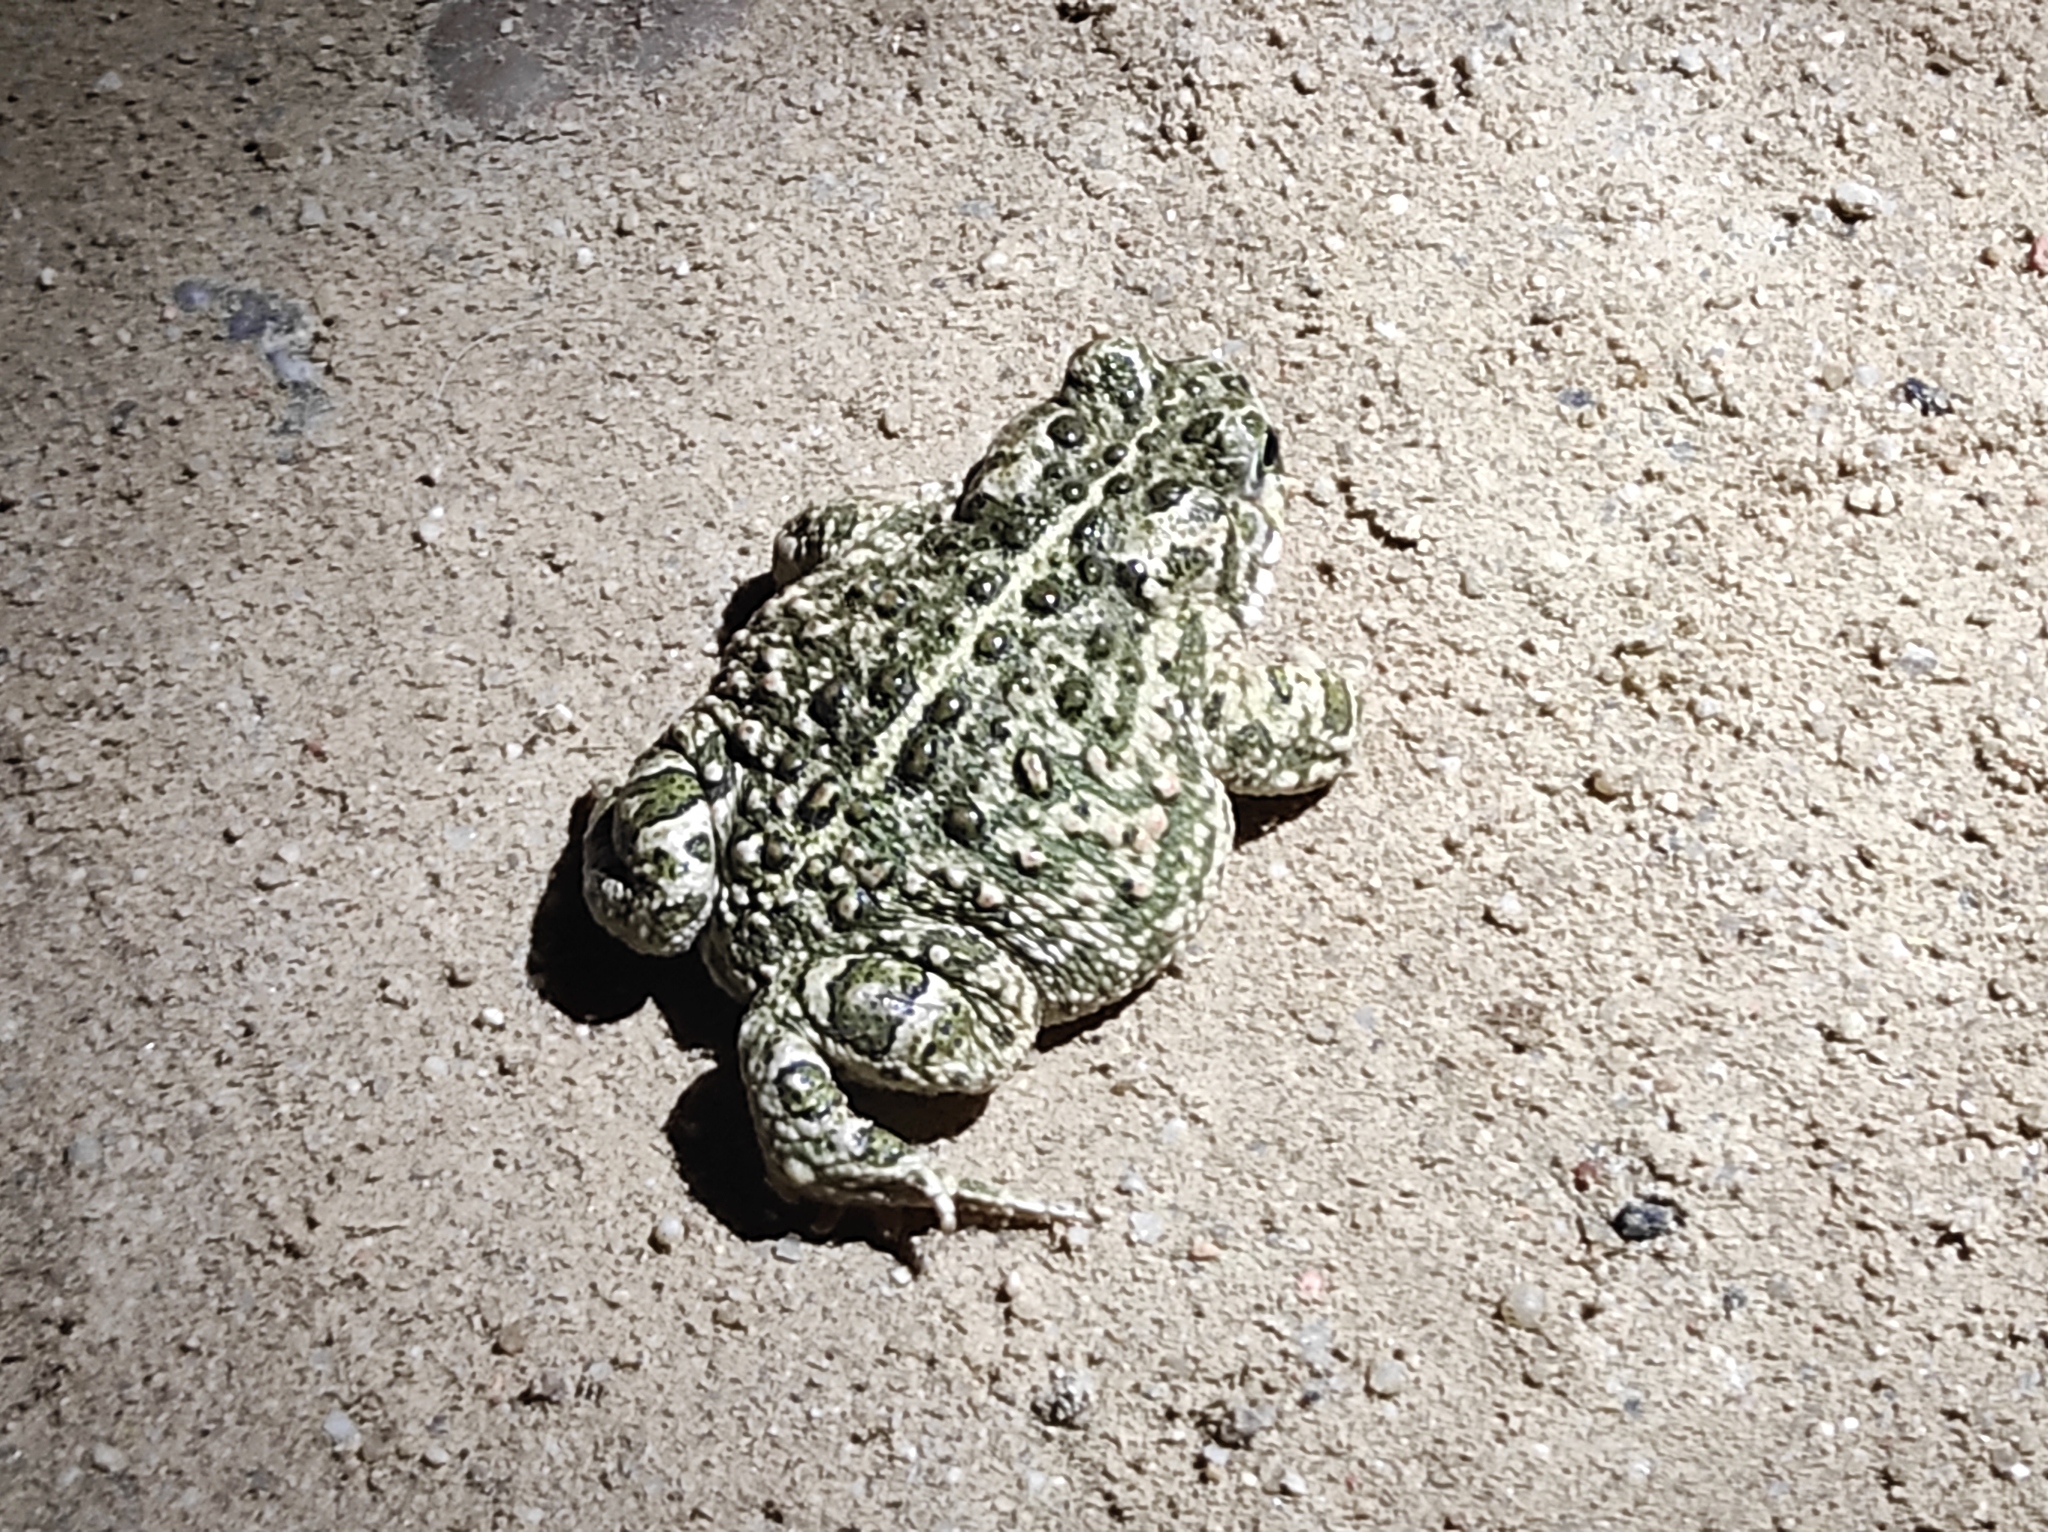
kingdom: Animalia
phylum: Chordata
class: Amphibia
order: Anura
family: Bufonidae
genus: Epidalea
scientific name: Epidalea calamita
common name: Natterjack toad
